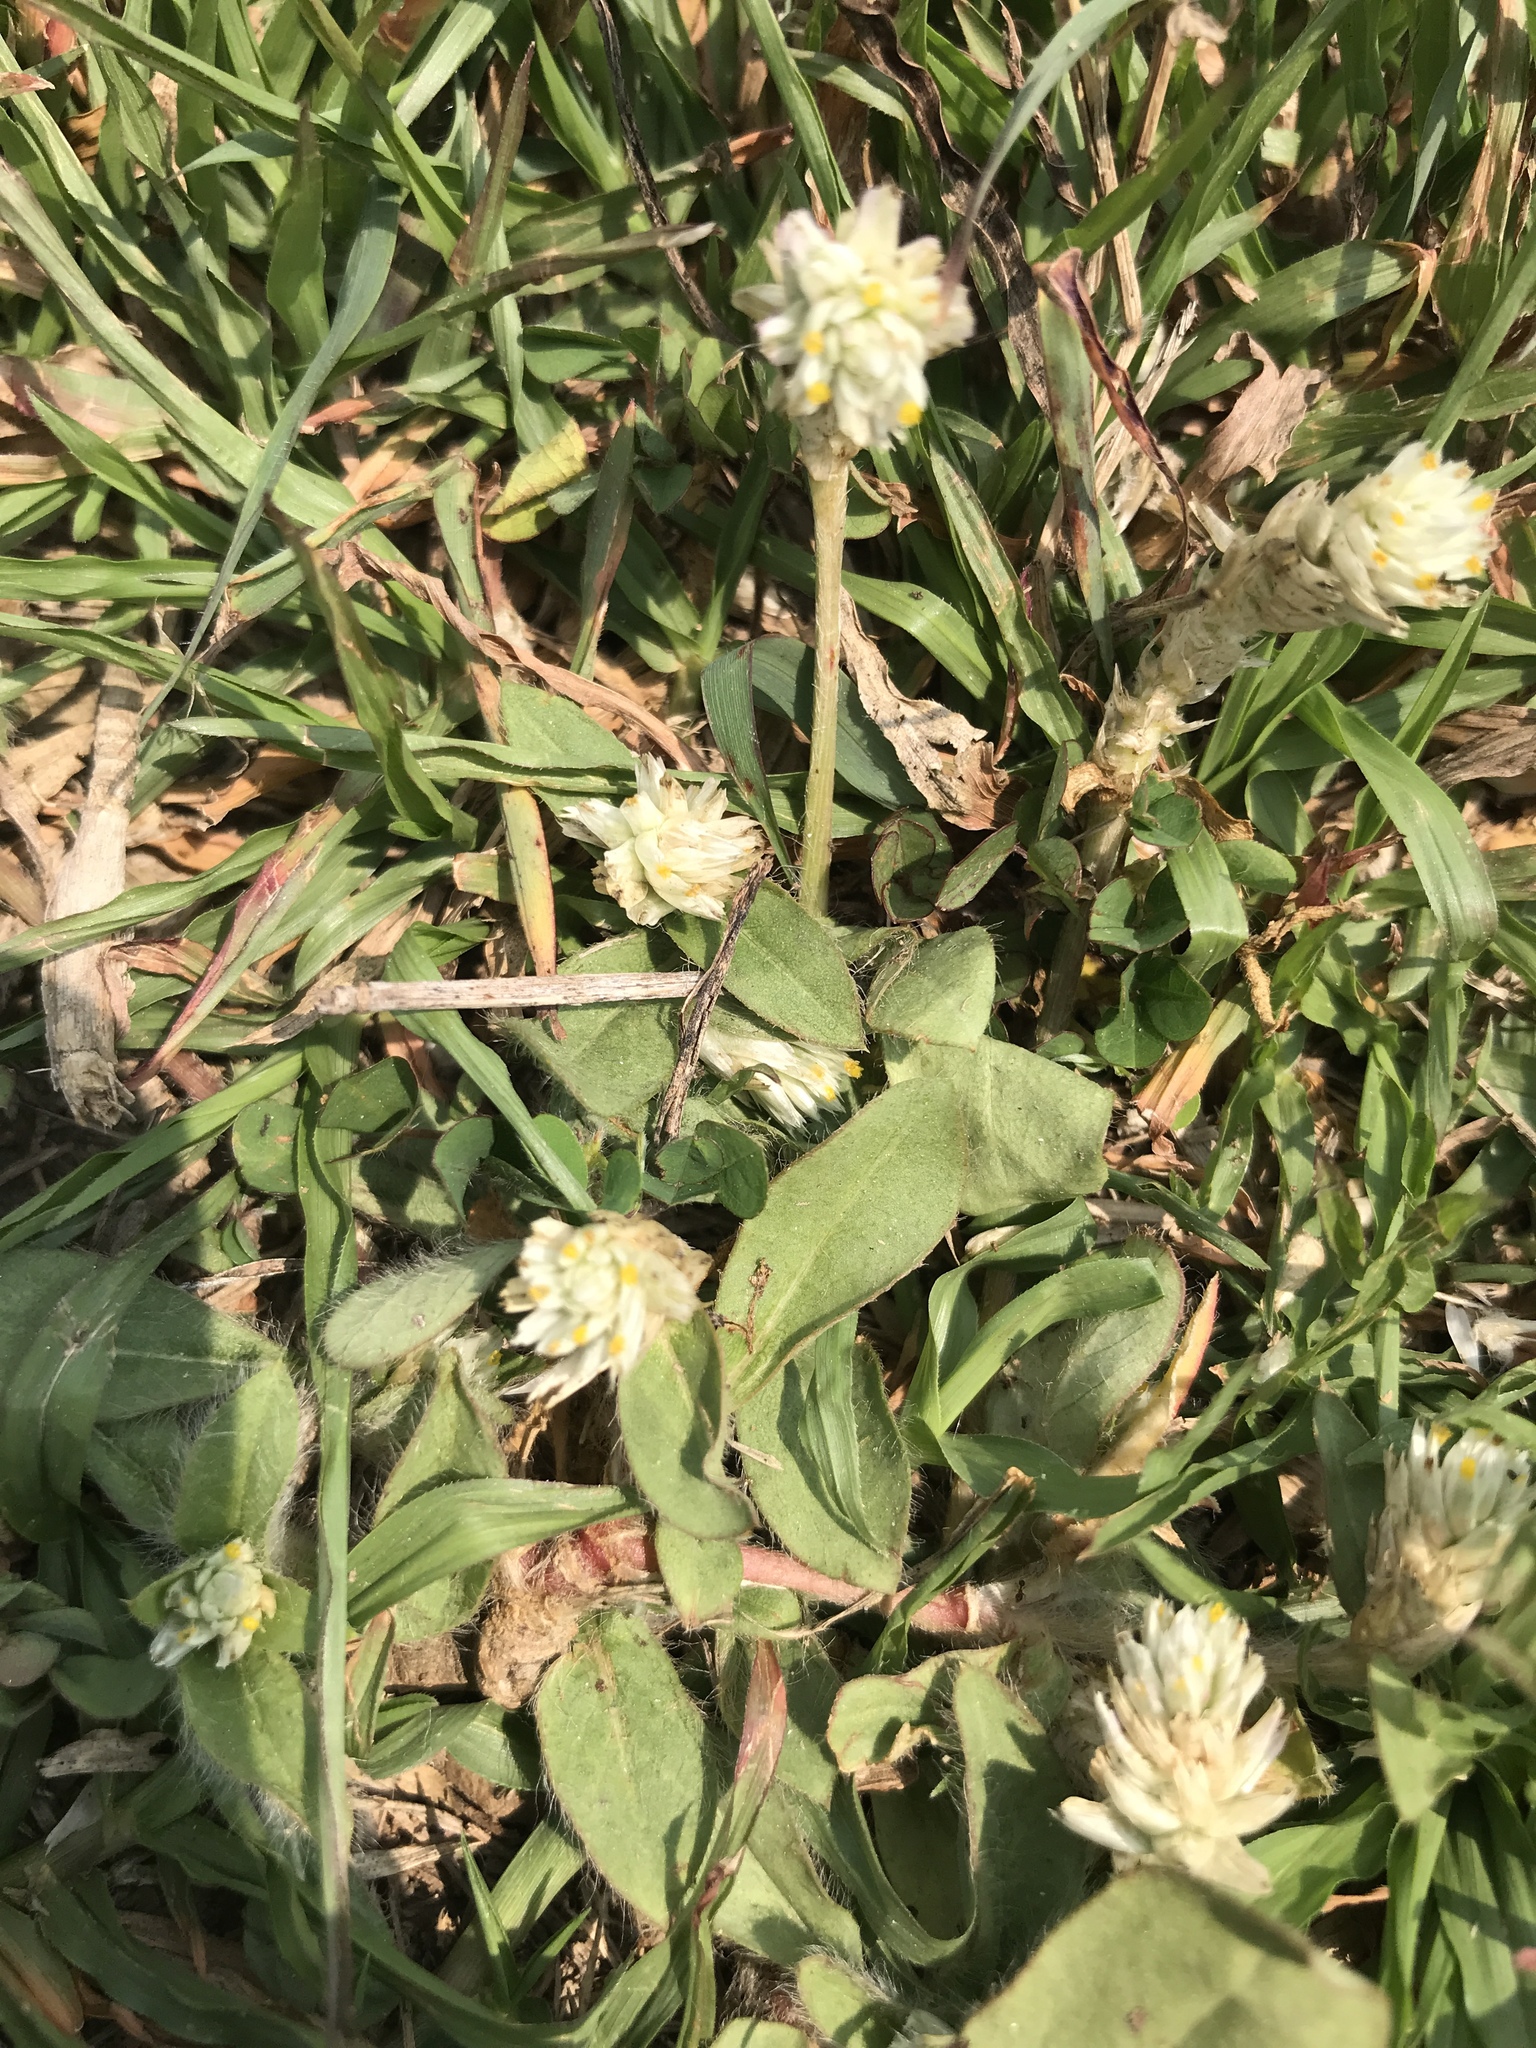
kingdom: Plantae
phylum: Tracheophyta
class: Magnoliopsida
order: Caryophyllales
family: Amaranthaceae
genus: Gomphrena
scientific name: Gomphrena serrata
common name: Arrasa con todo
